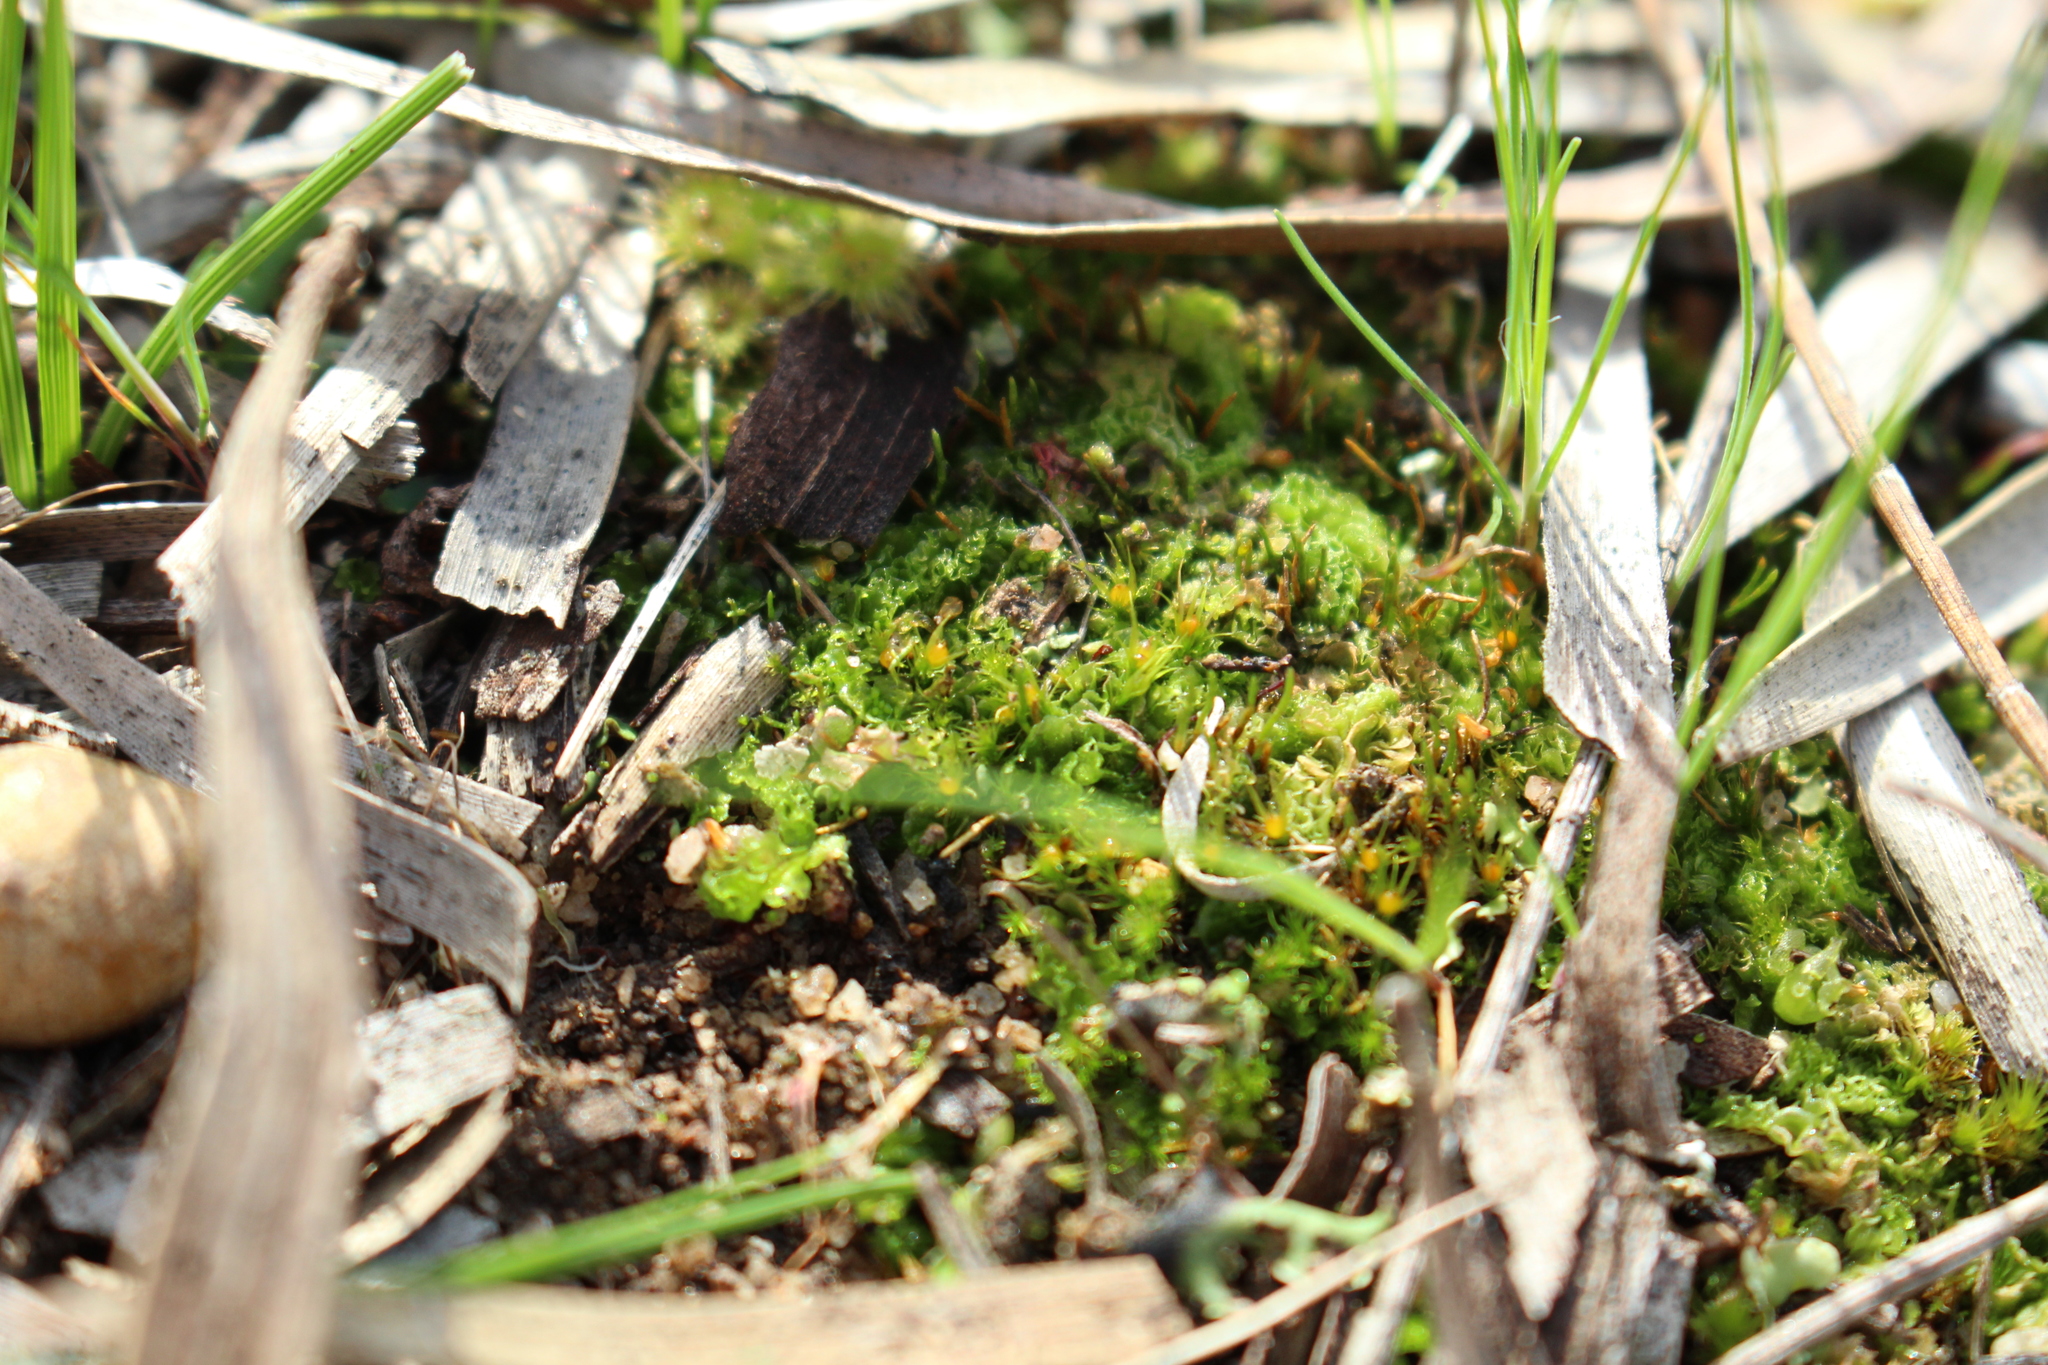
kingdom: Plantae
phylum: Bryophyta
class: Bryopsida
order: Dicranales
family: Ditrichaceae
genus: Pleuridium
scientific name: Pleuridium nervosum
